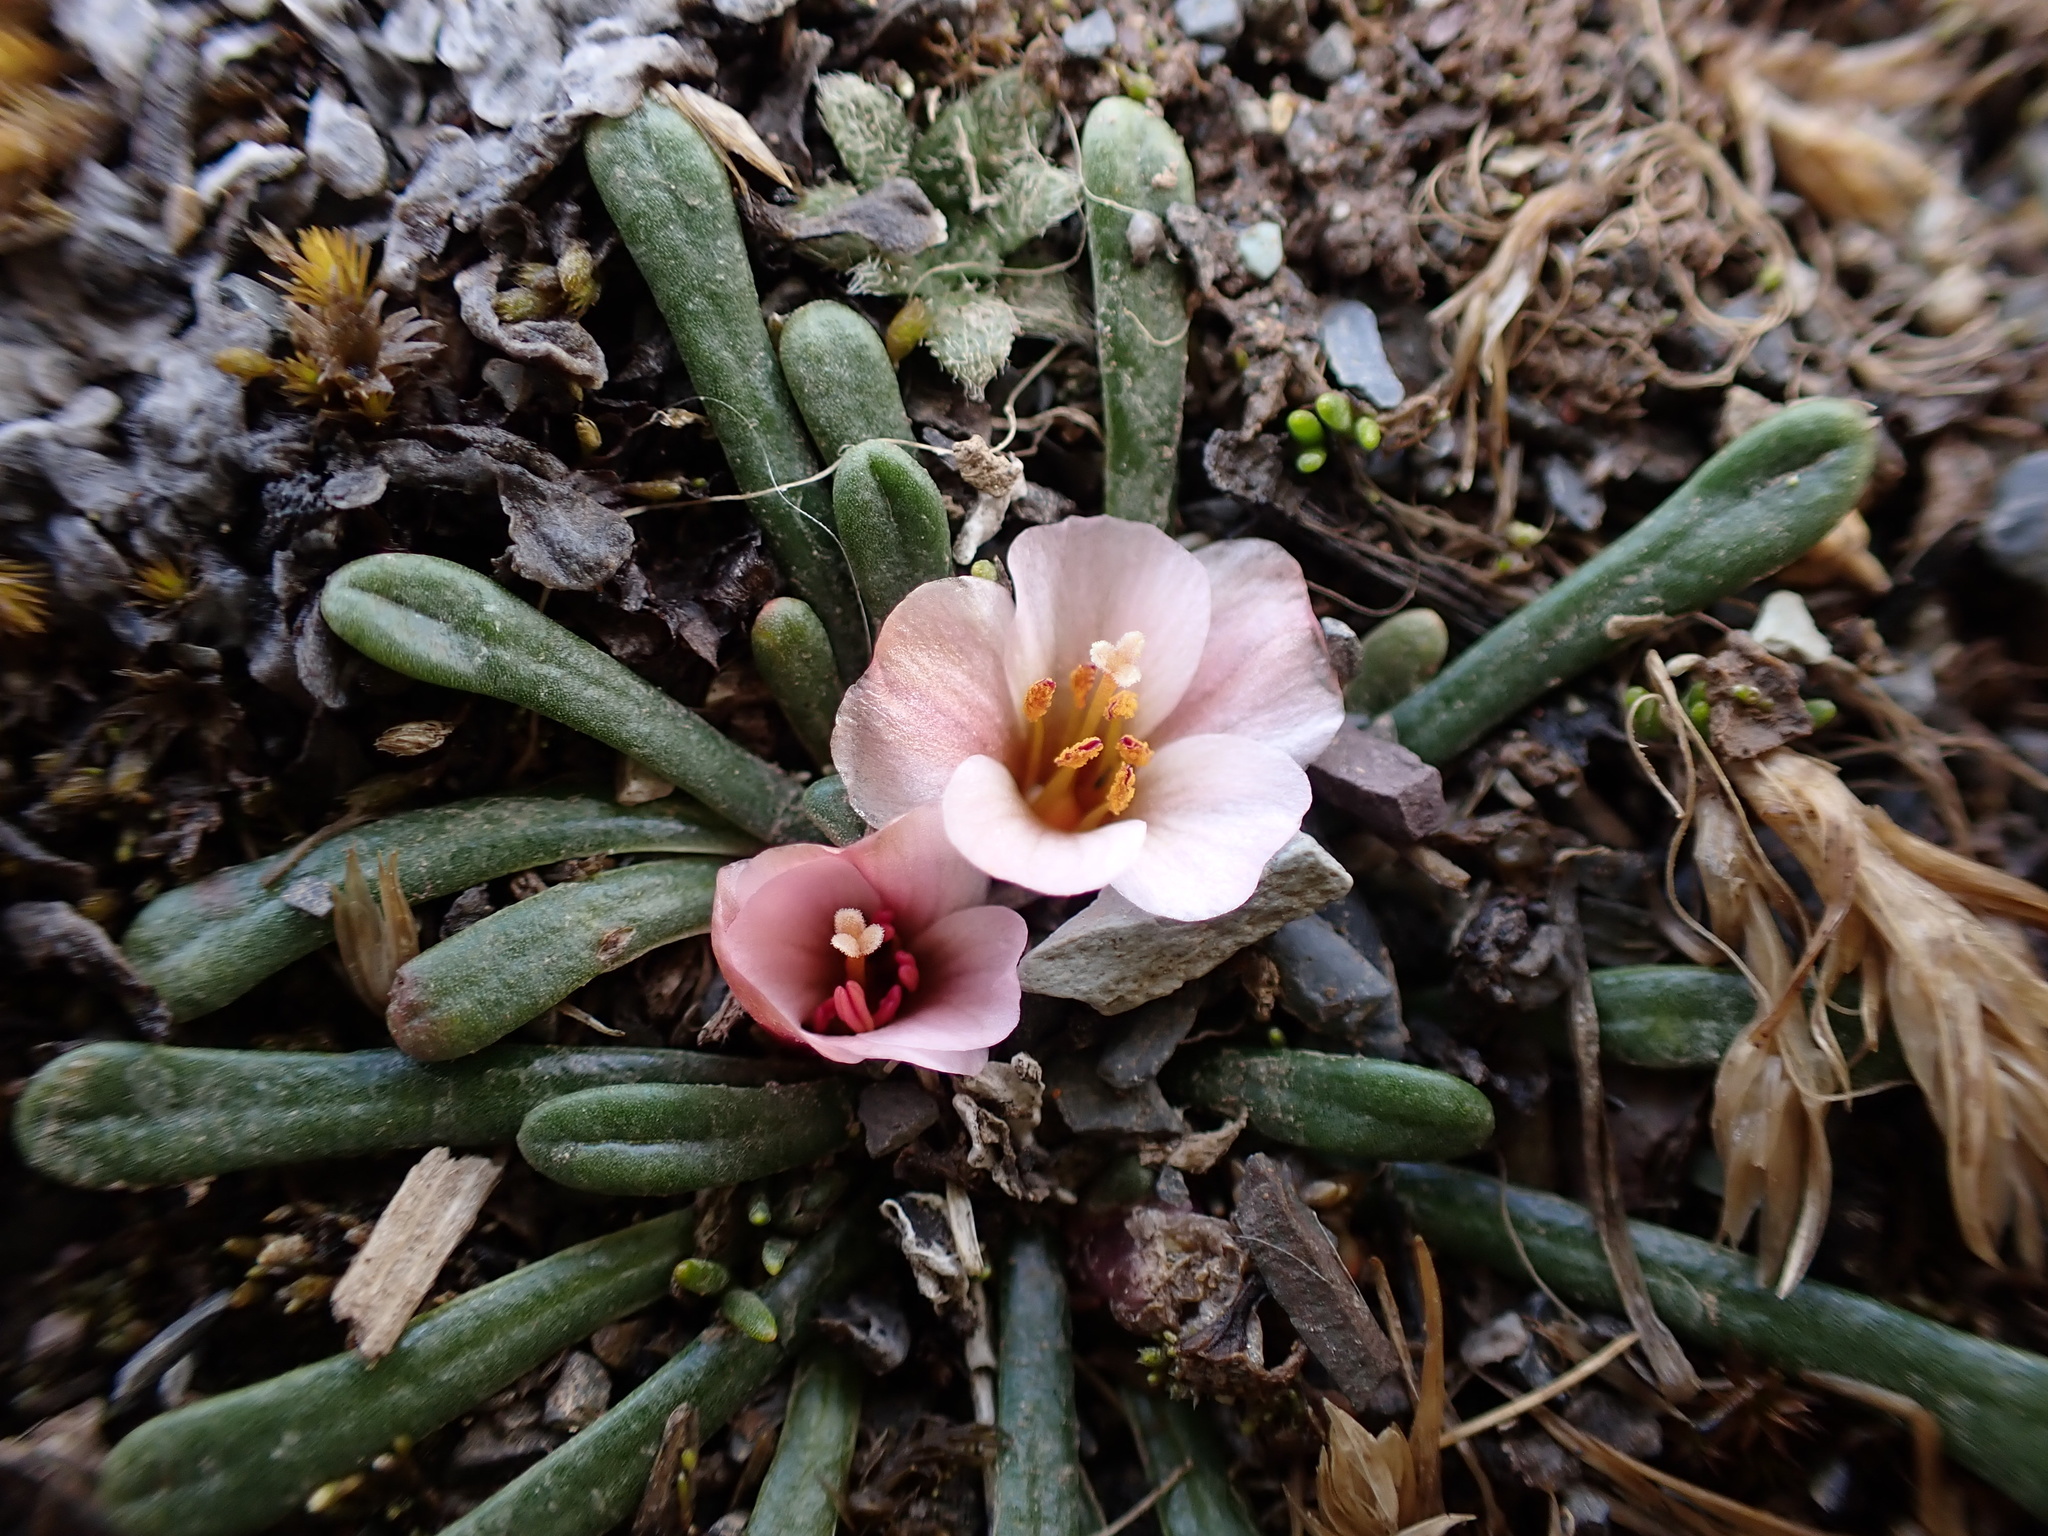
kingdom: Plantae
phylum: Tracheophyta
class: Magnoliopsida
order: Caryophyllales
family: Montiaceae
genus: Calandrinia
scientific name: Calandrinia acaulis
